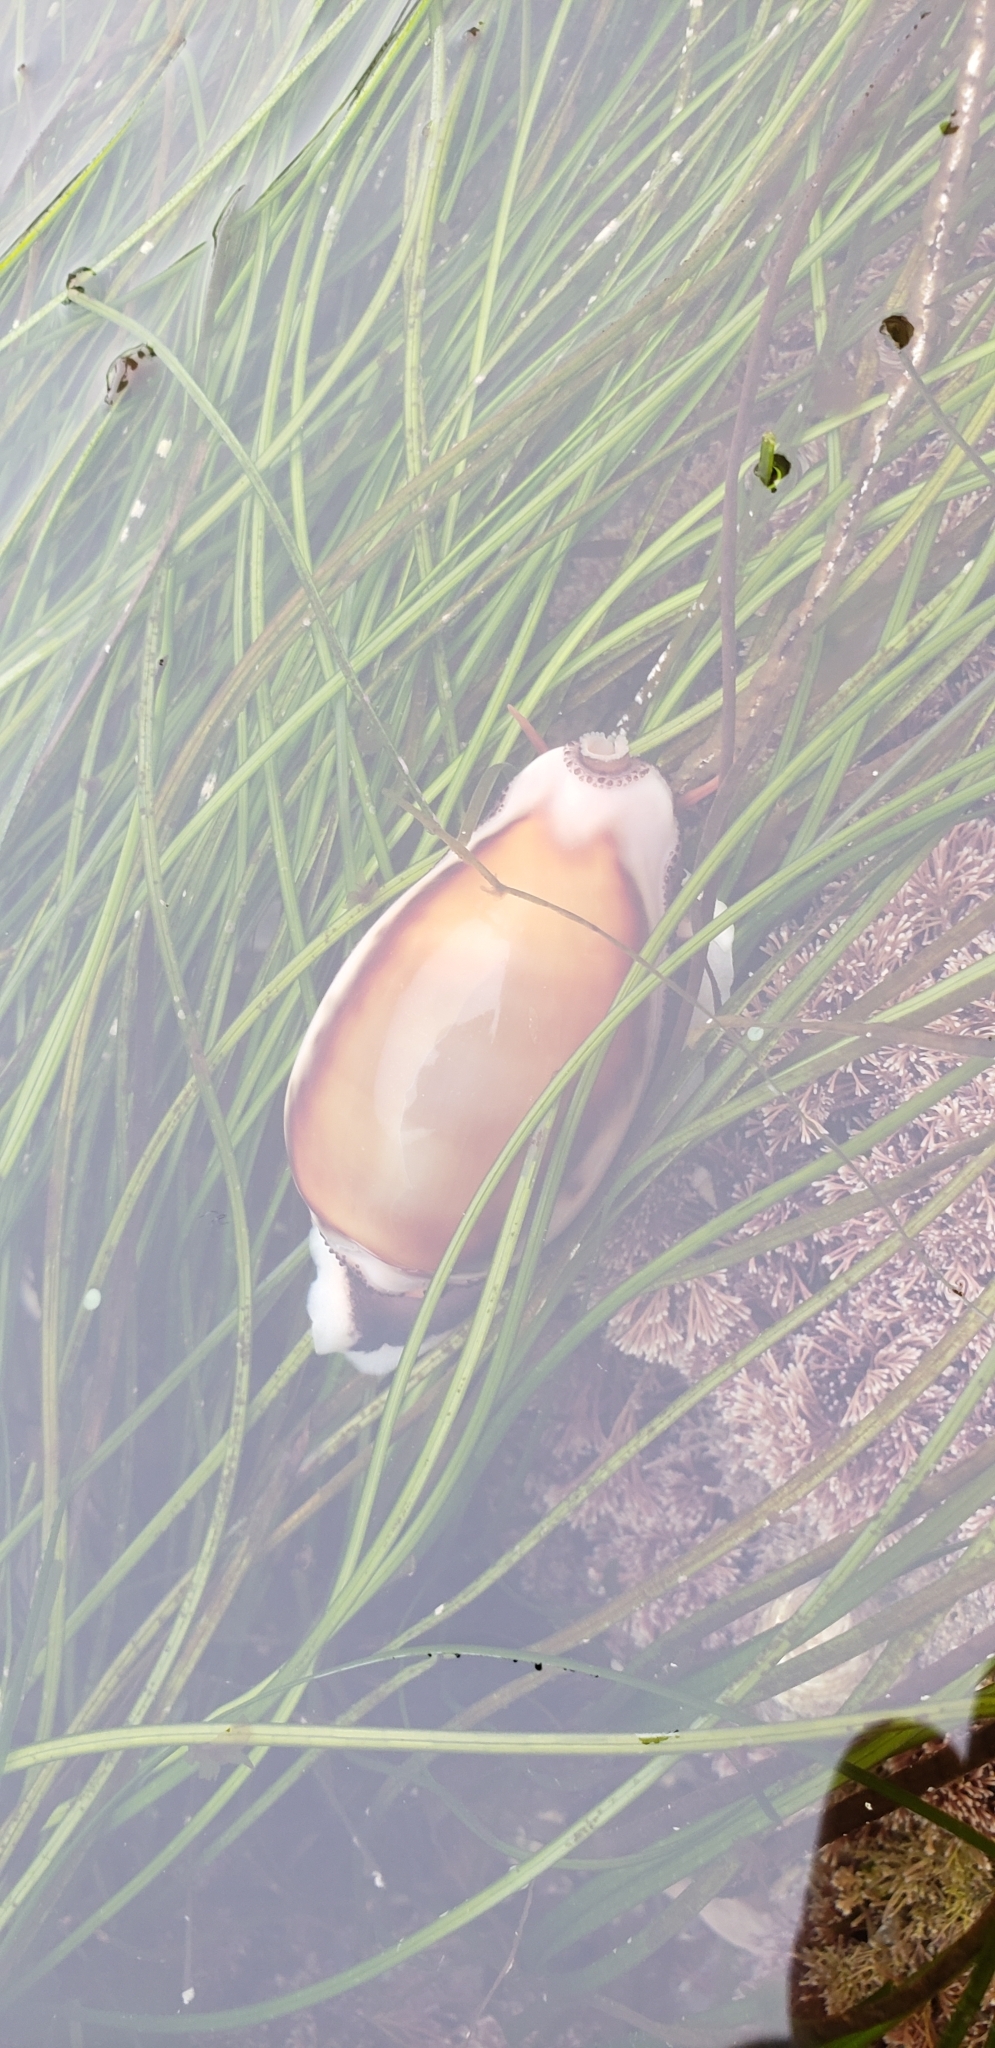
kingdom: Animalia
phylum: Mollusca
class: Gastropoda
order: Littorinimorpha
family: Cypraeidae
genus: Neobernaya
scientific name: Neobernaya spadicea
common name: Chestnut cowrie
